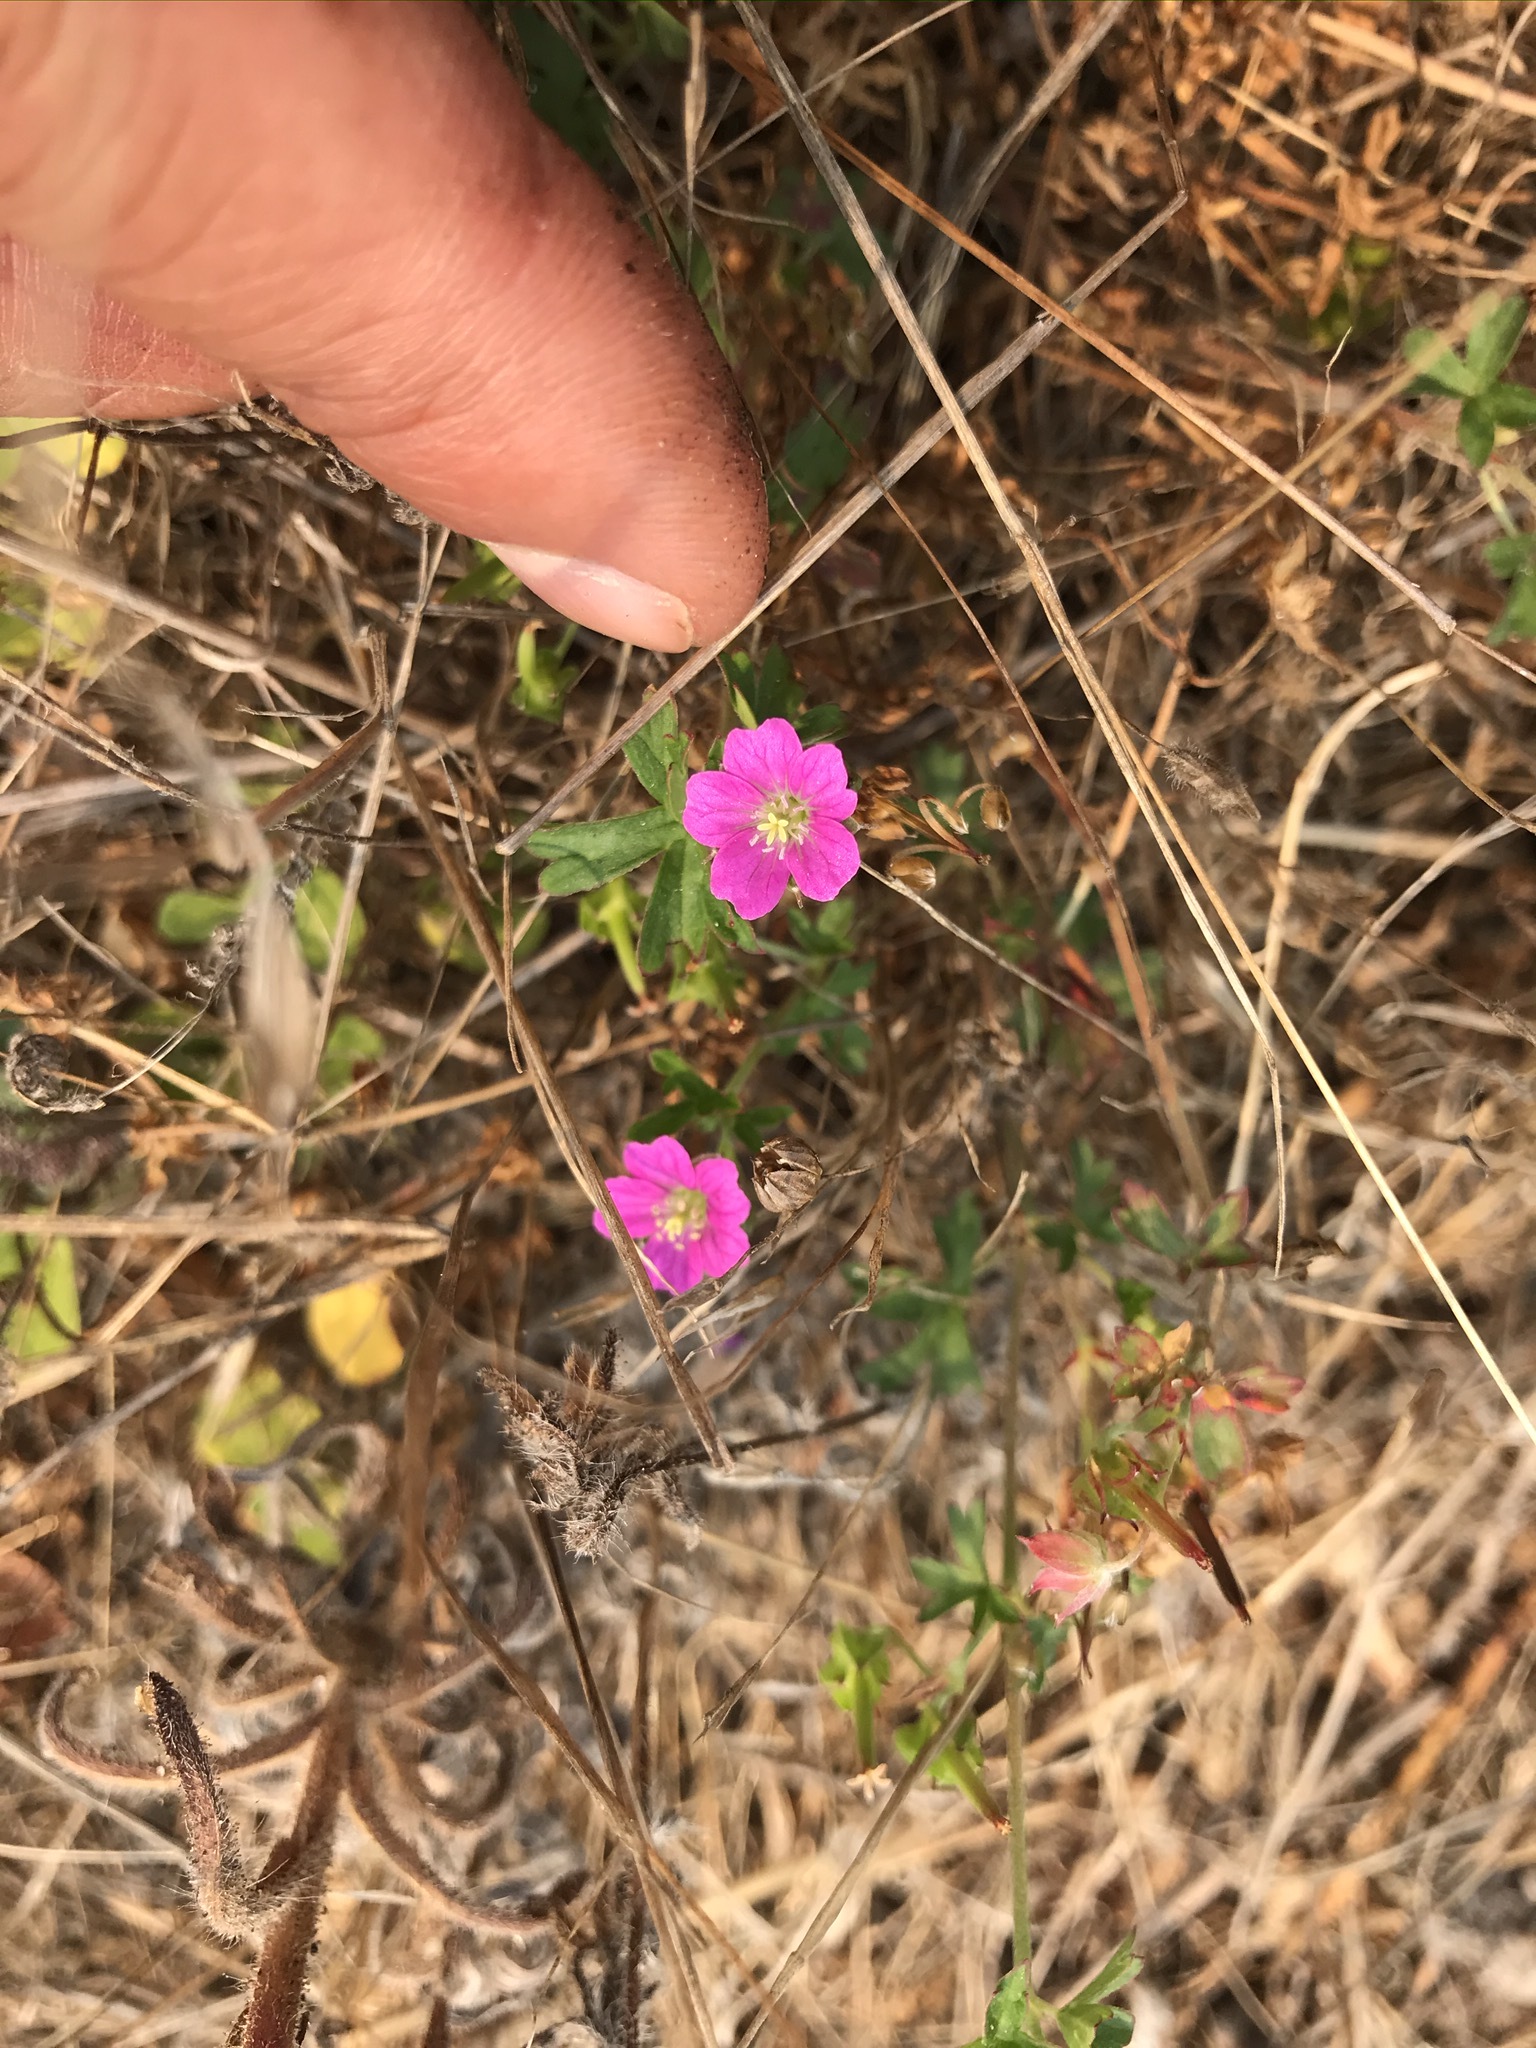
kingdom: Plantae
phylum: Tracheophyta
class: Magnoliopsida
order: Geraniales
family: Geraniaceae
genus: Geranium
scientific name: Geranium core-core
